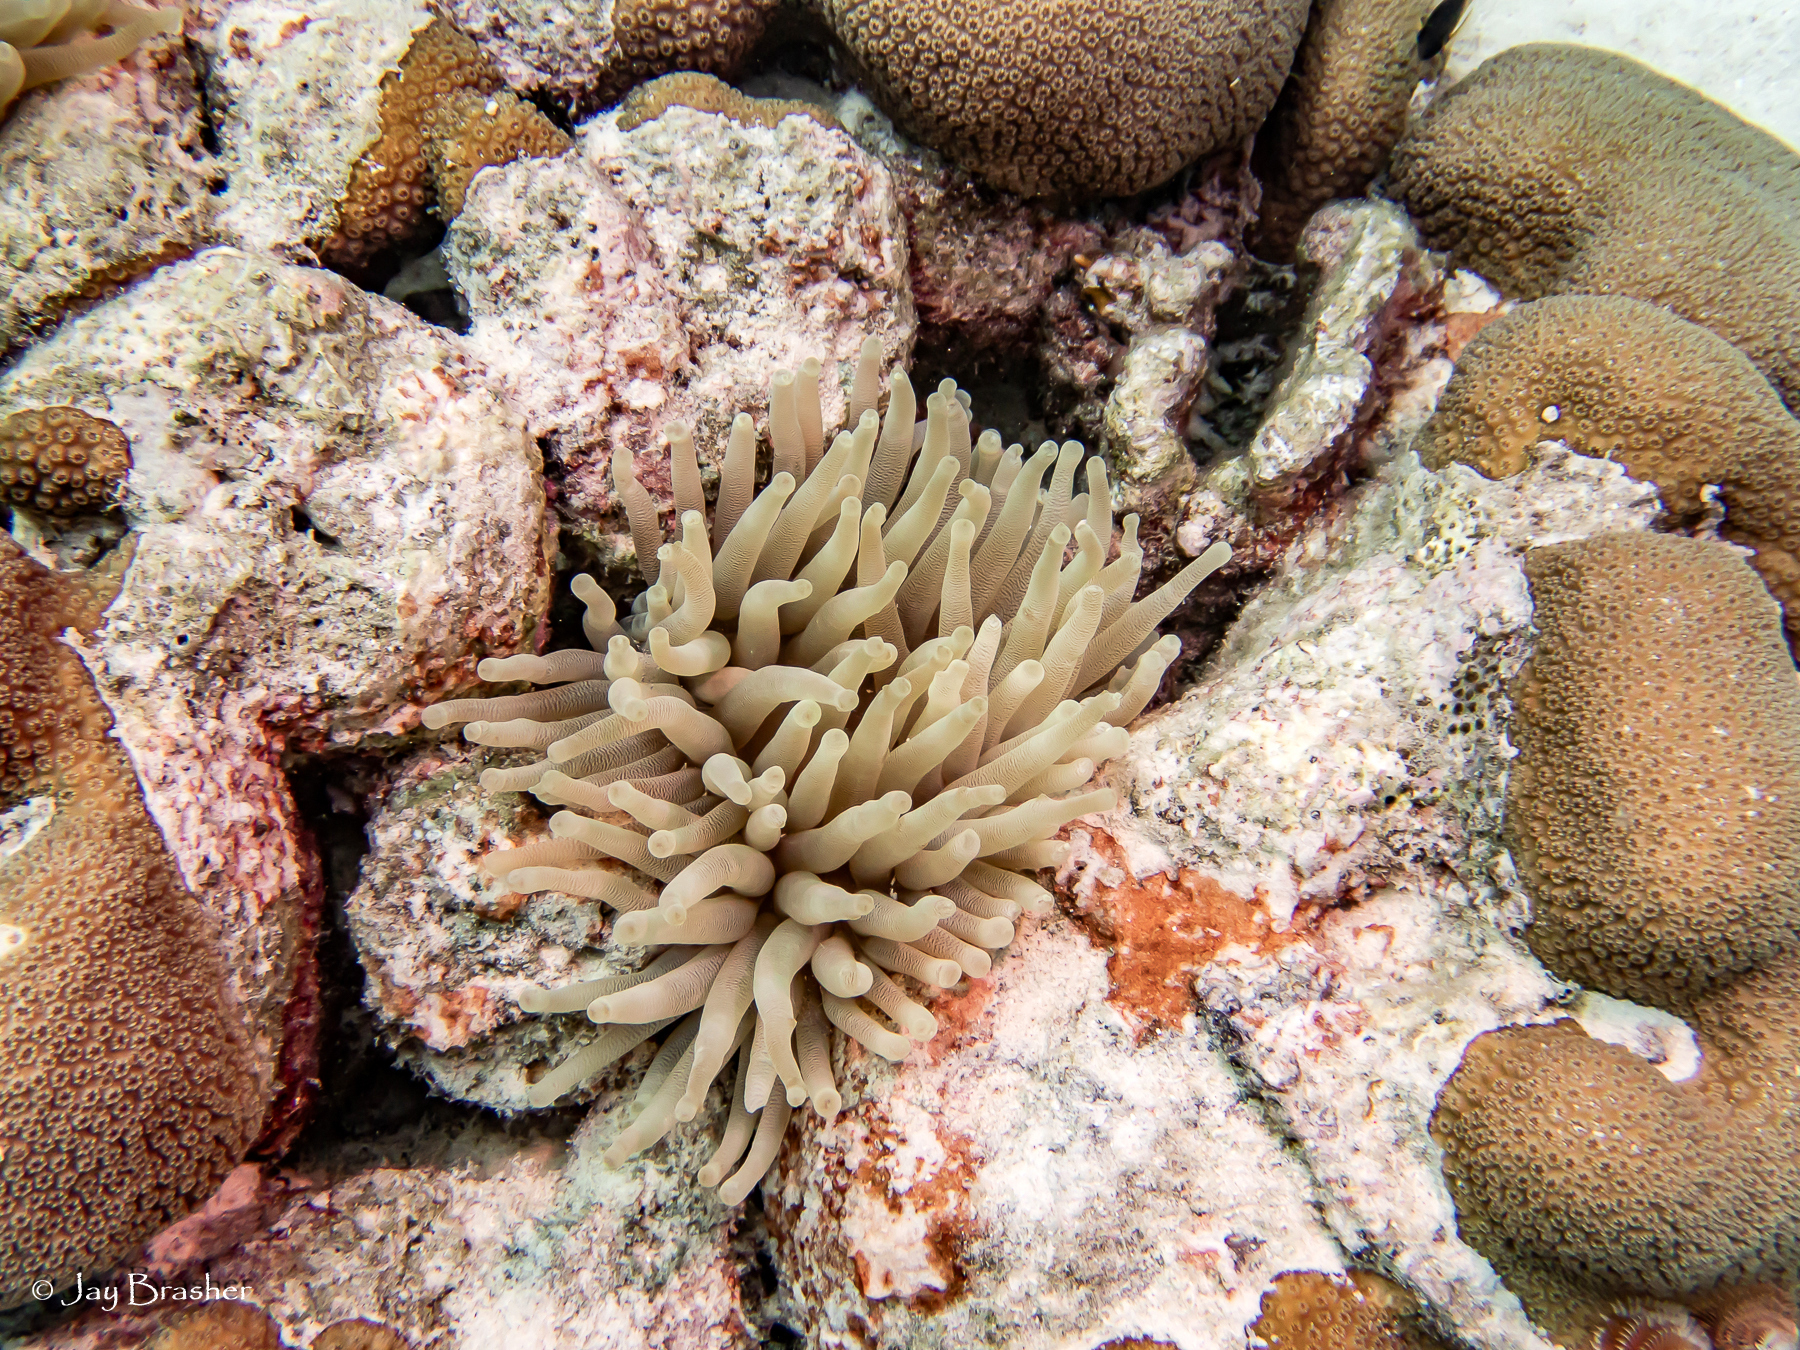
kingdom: Animalia
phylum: Cnidaria
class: Anthozoa
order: Scleractinia
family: Merulinidae
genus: Orbicella
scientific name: Orbicella annularis
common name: Boulder star coral
